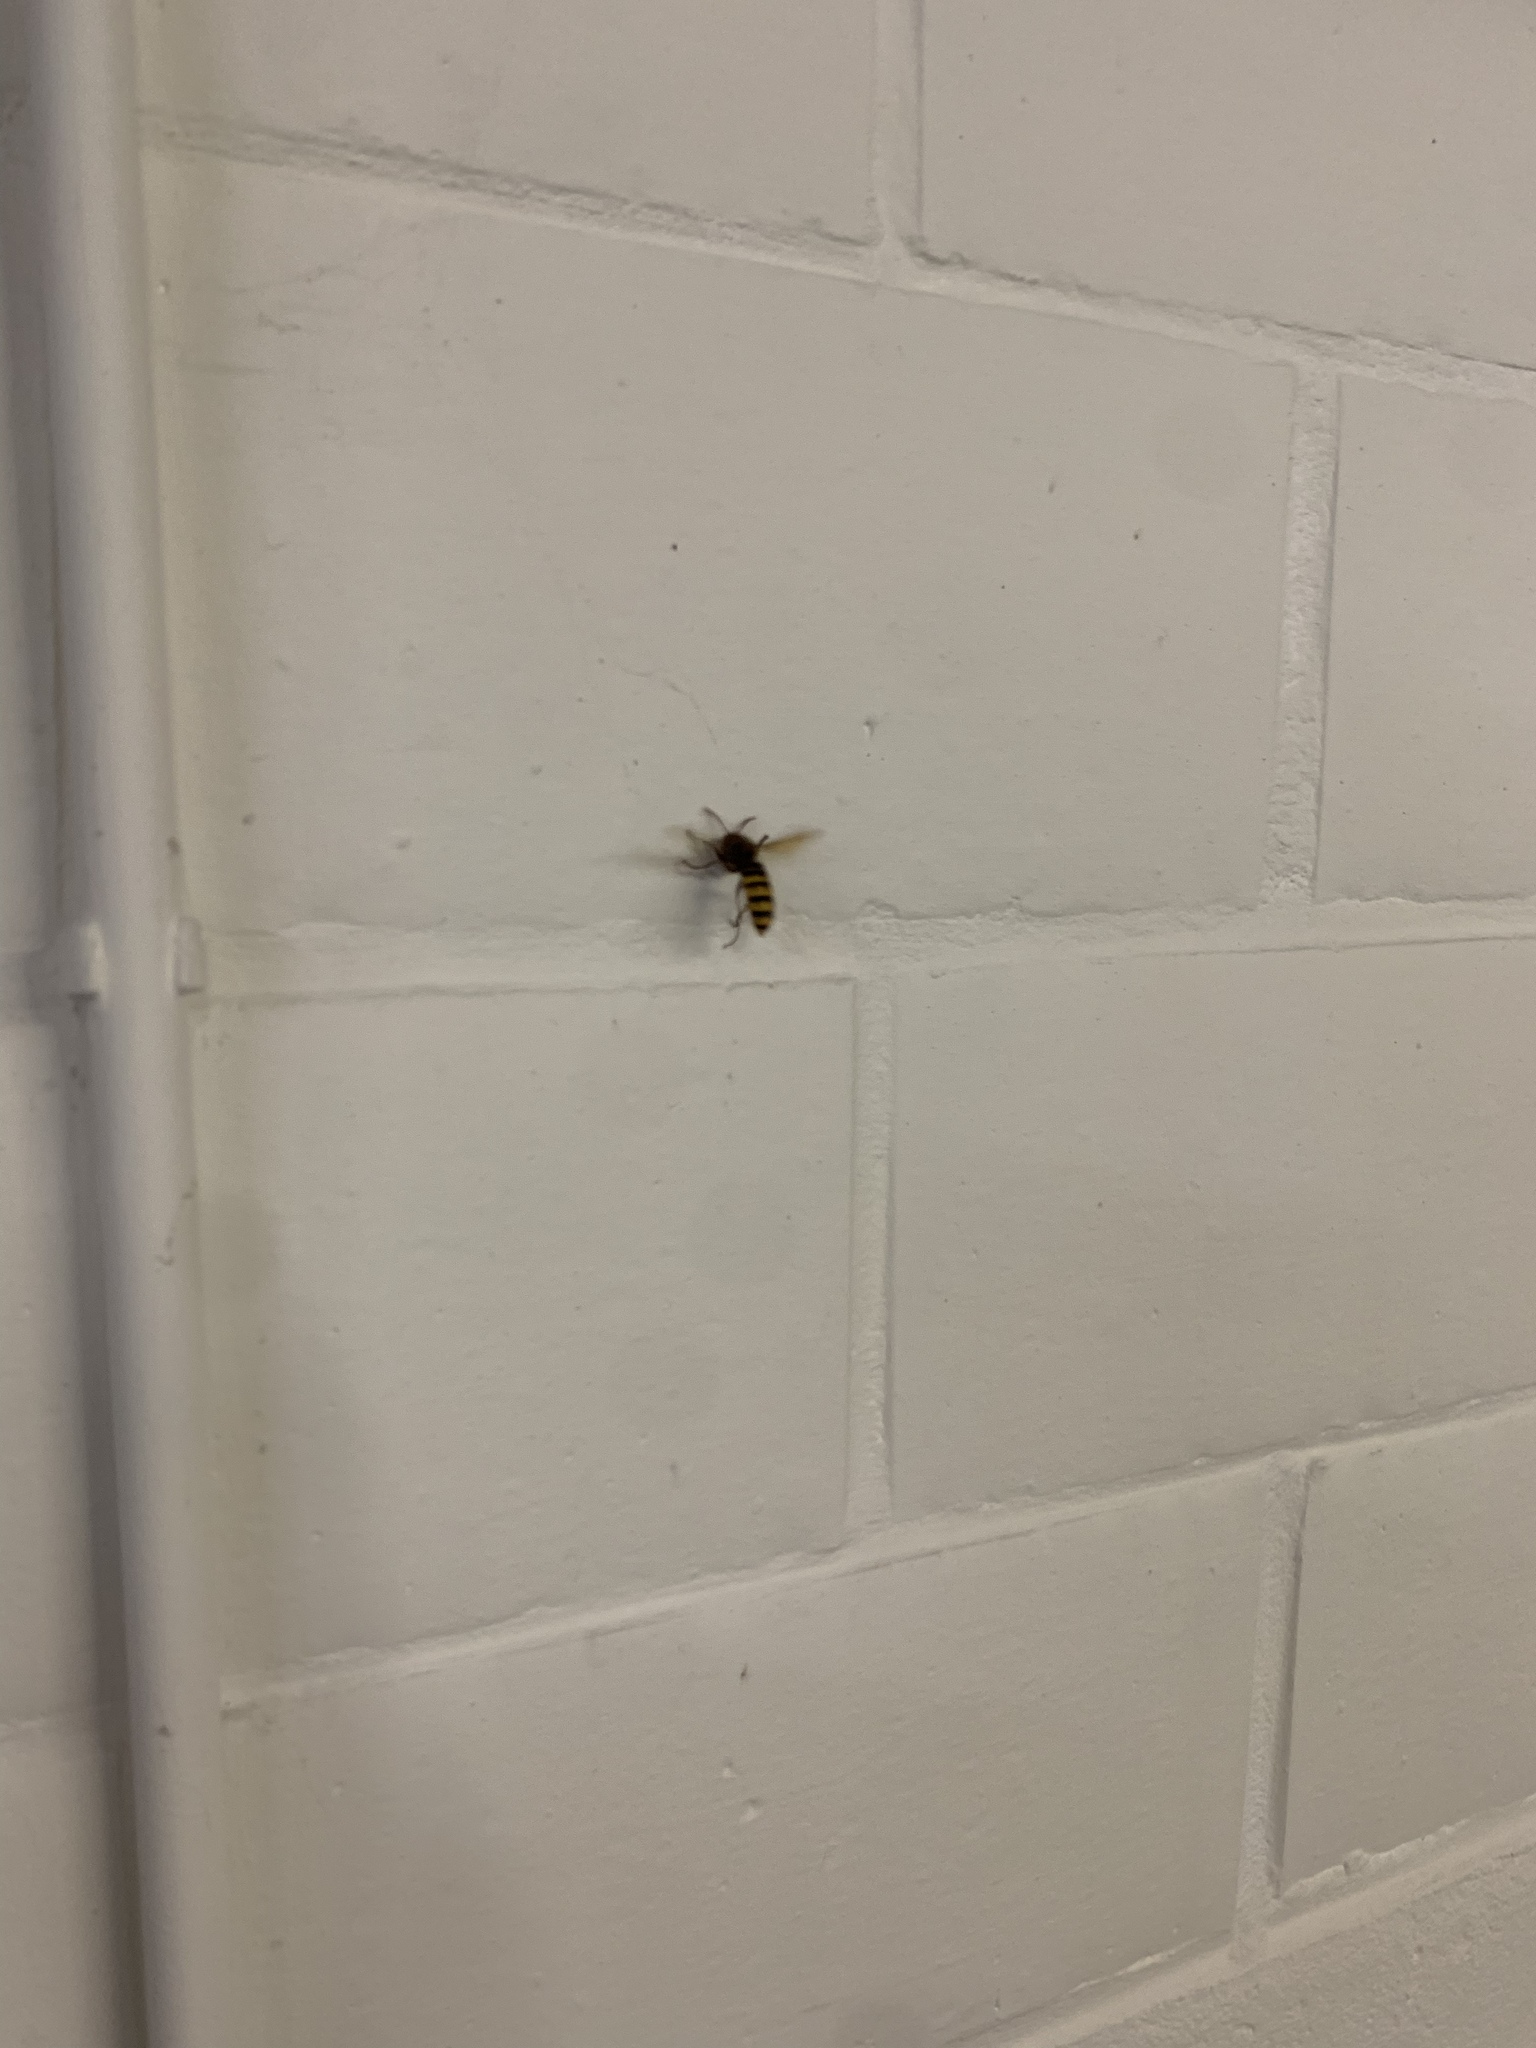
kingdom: Animalia
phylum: Arthropoda
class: Insecta
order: Hymenoptera
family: Vespidae
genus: Vespa
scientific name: Vespa crabro
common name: Hornet
